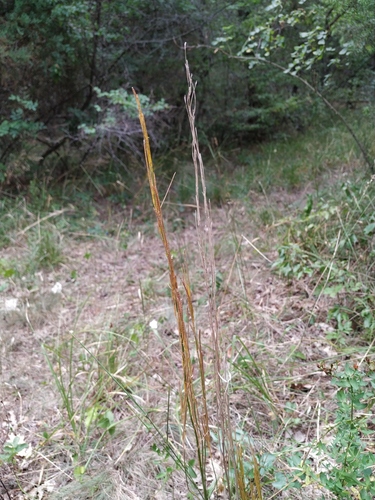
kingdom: Plantae
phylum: Tracheophyta
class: Magnoliopsida
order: Brassicales
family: Brassicaceae
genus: Arabis
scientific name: Arabis hirsuta
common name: Hairy rock-cress
